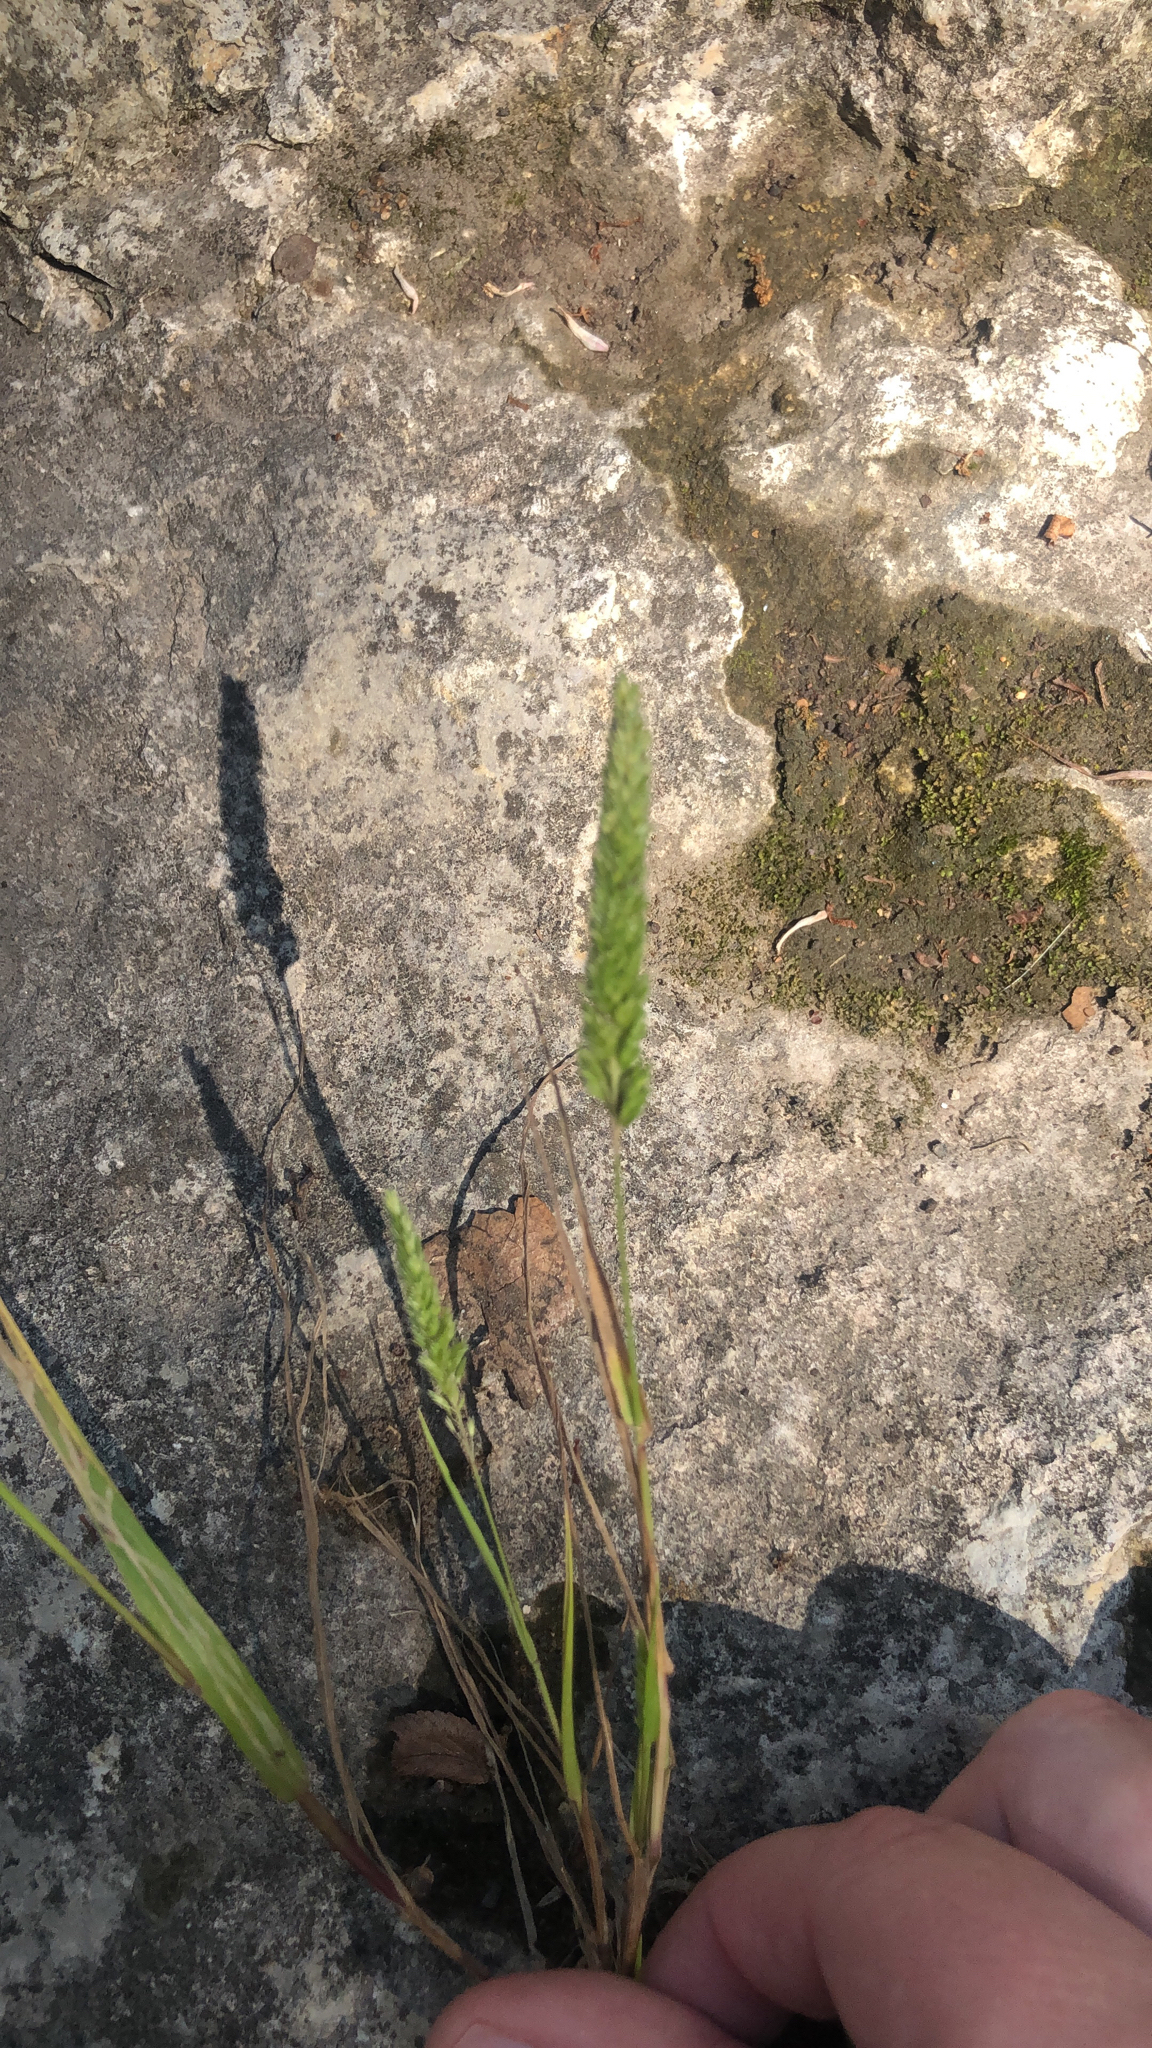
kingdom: Plantae
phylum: Tracheophyta
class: Liliopsida
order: Poales
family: Poaceae
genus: Rostraria
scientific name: Rostraria cristata
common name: Mediterranean hair-grass
